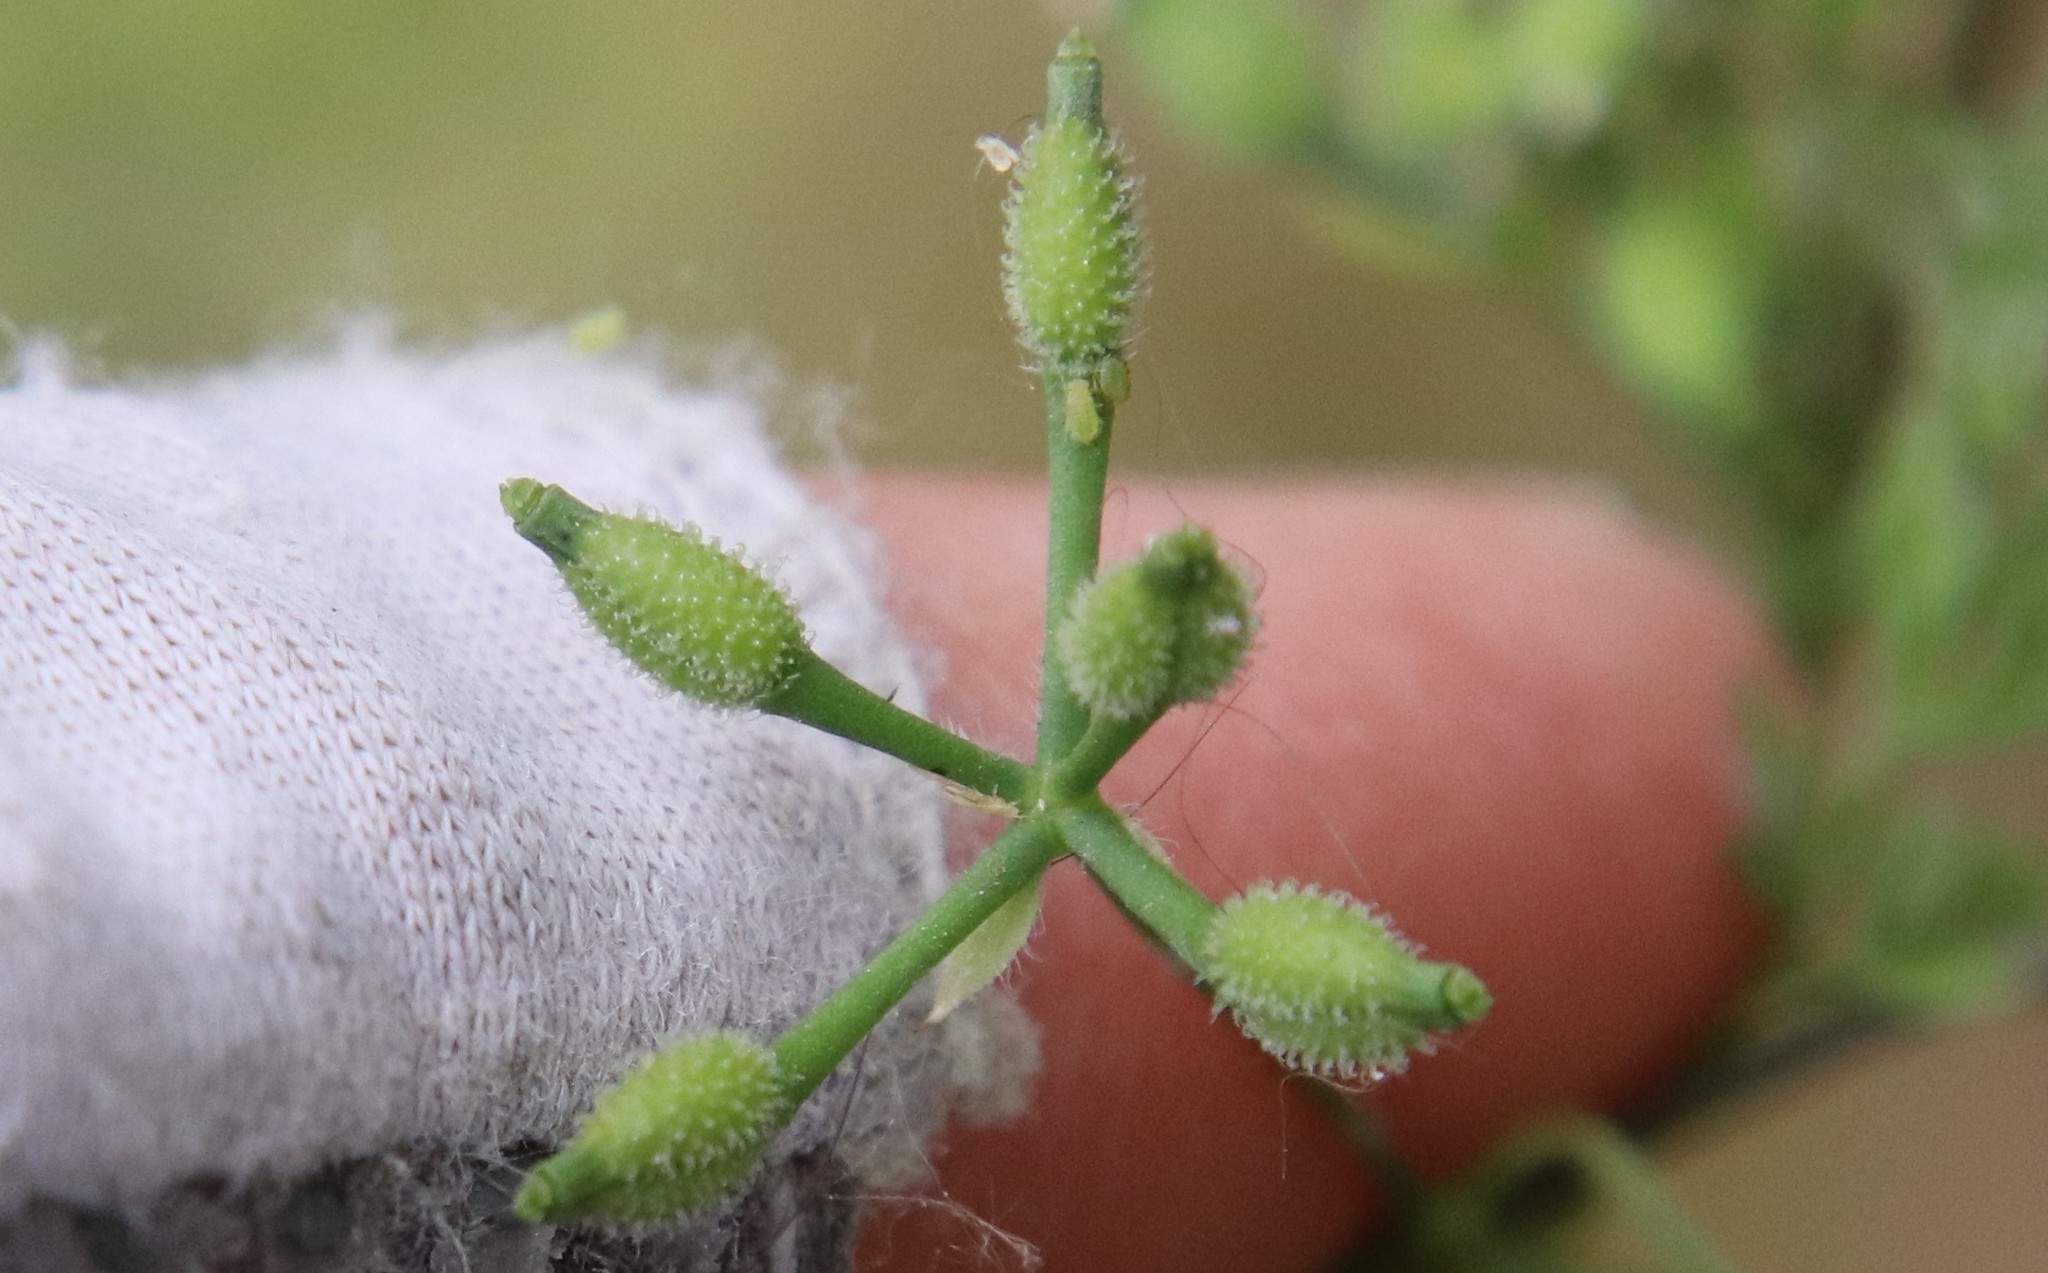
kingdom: Plantae
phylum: Tracheophyta
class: Magnoliopsida
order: Apiales
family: Apiaceae
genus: Anthriscus
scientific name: Anthriscus caucalis
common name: Bur chervil
